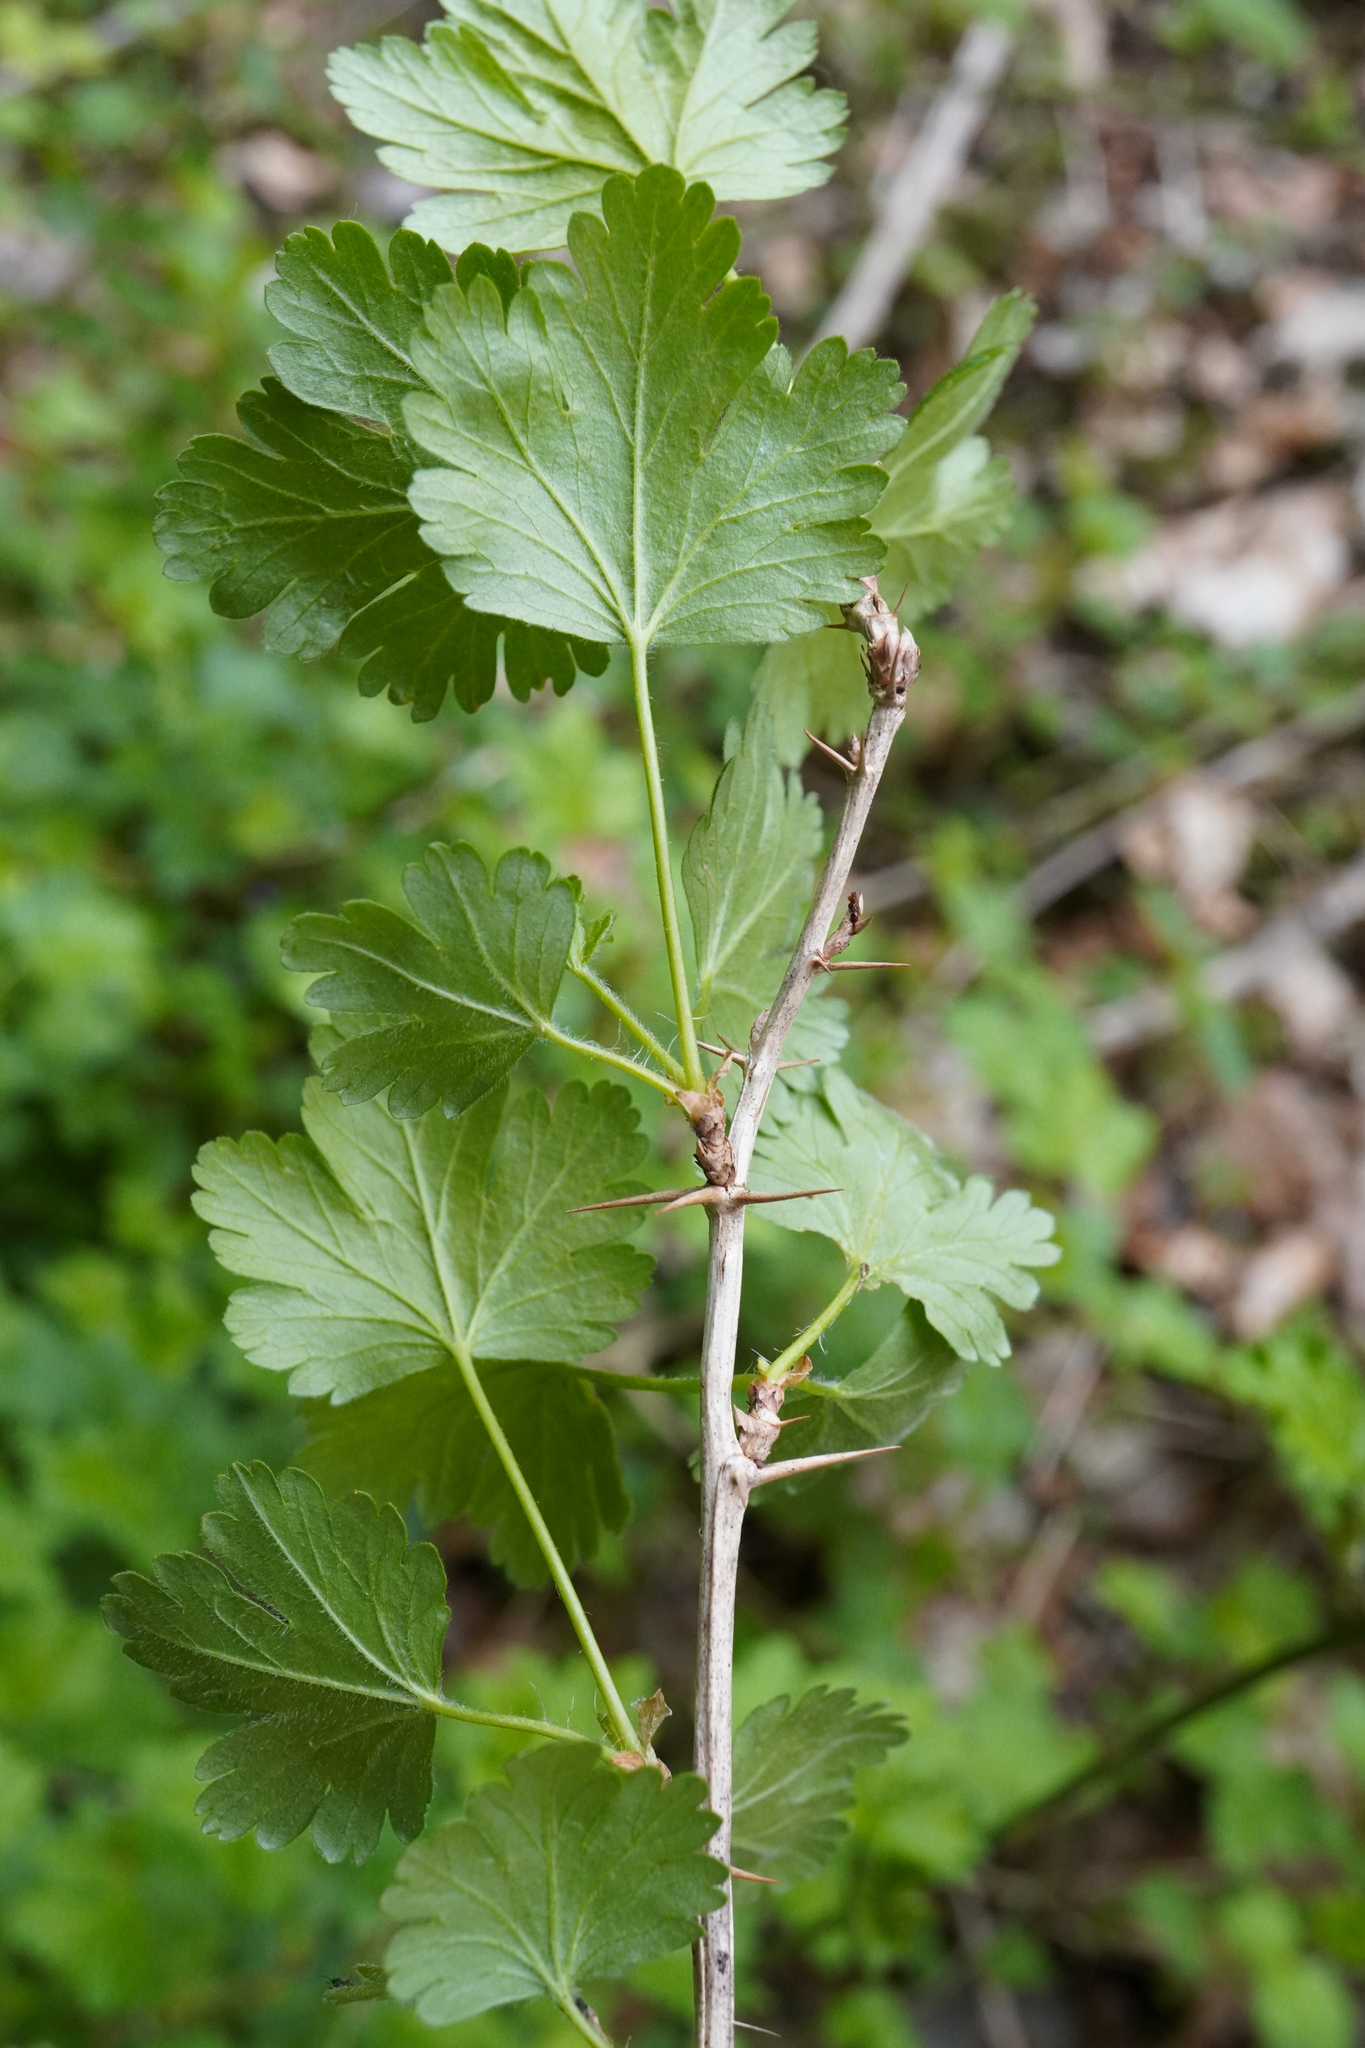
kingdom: Plantae
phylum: Tracheophyta
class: Magnoliopsida
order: Saxifragales
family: Grossulariaceae
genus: Ribes
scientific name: Ribes uva-crispa
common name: Gooseberry
